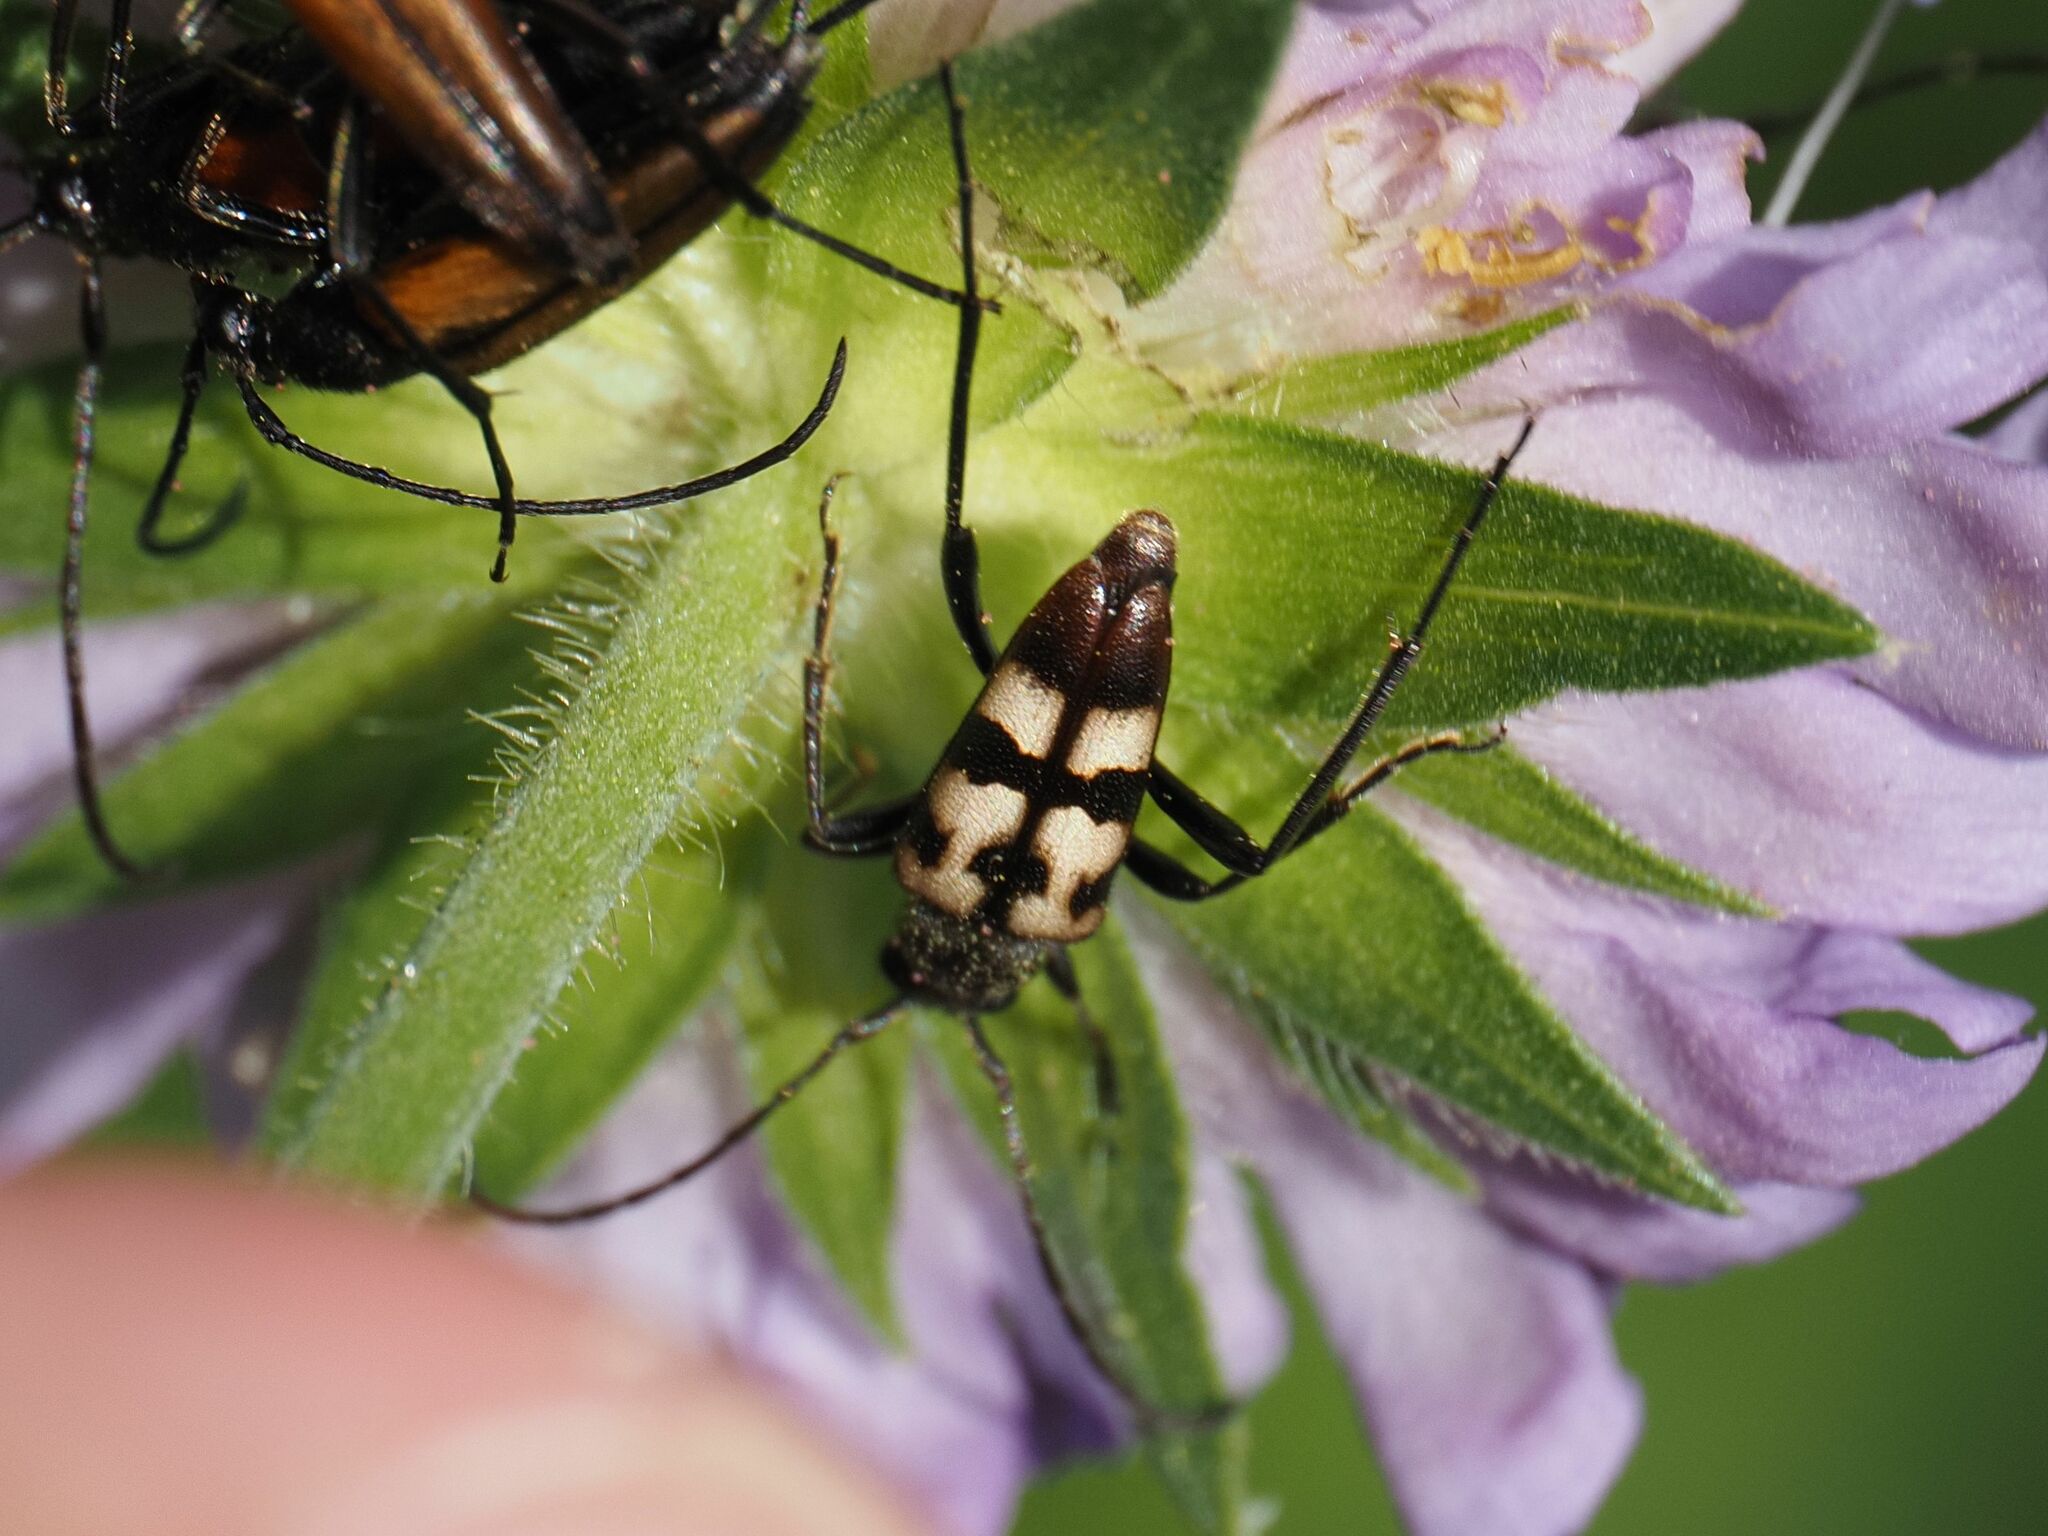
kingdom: Animalia
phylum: Arthropoda
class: Insecta
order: Coleoptera
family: Cerambycidae
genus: Pachytodes
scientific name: Pachytodes
